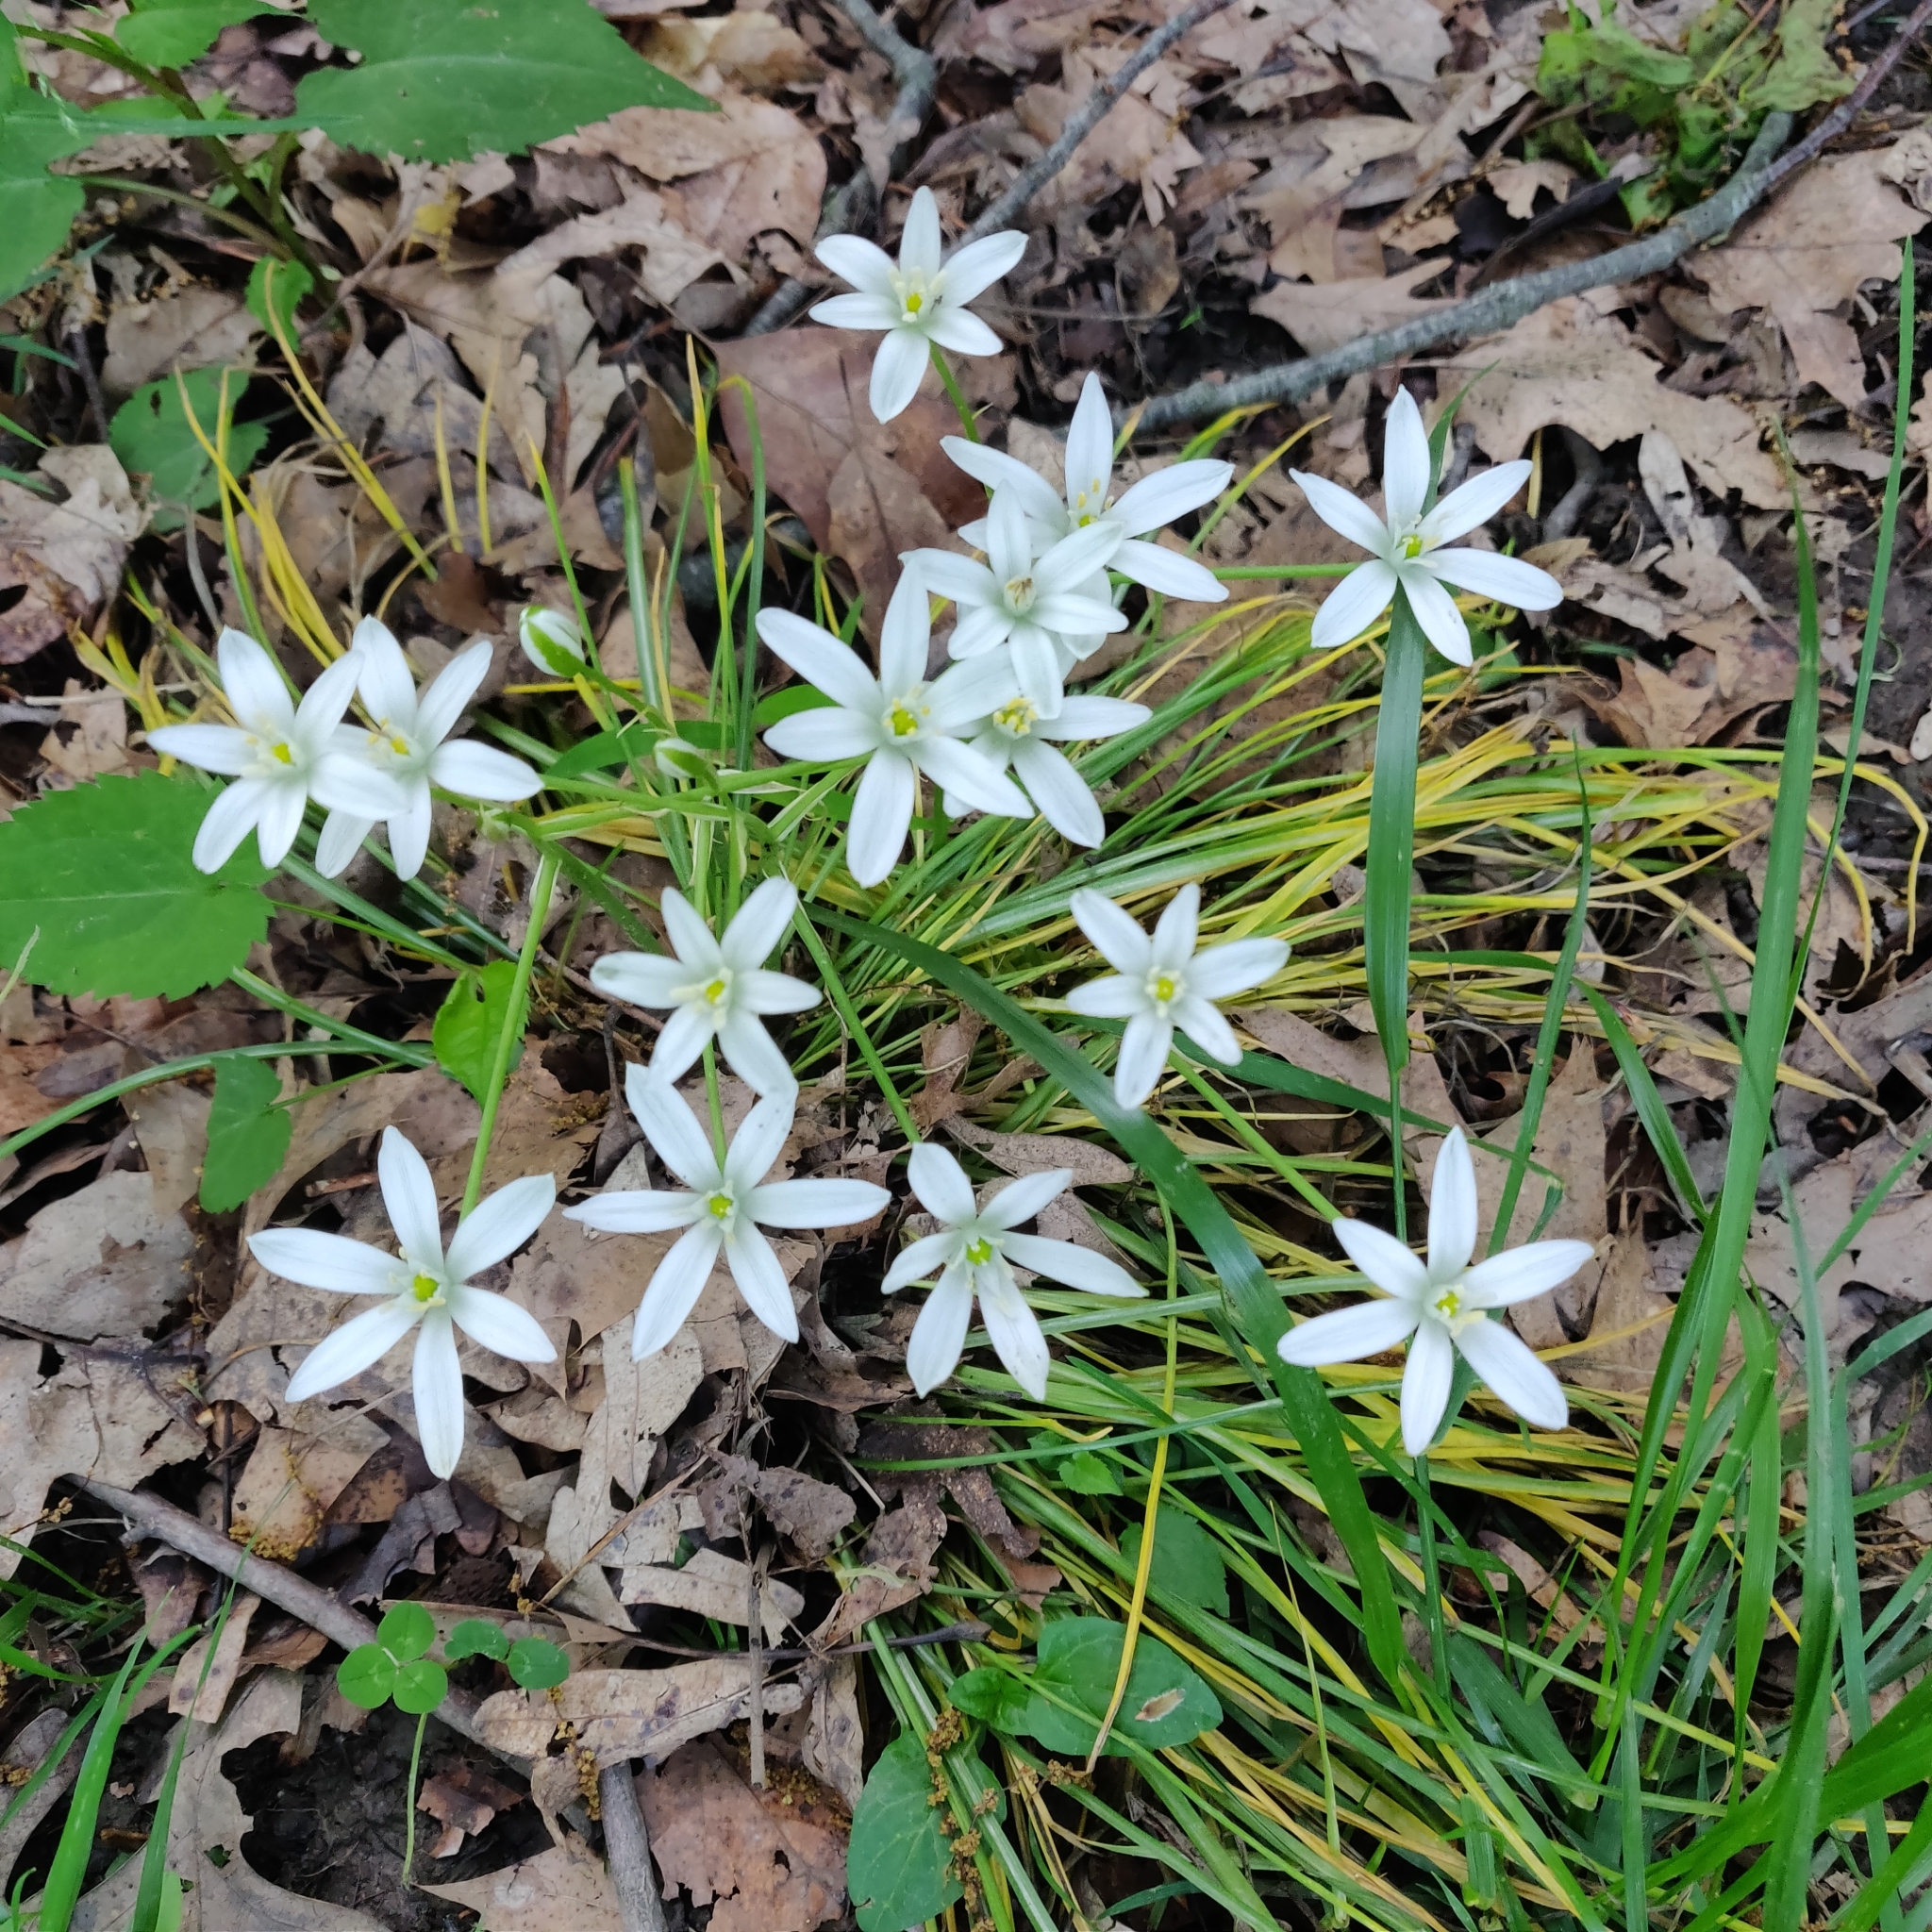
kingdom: Plantae
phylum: Tracheophyta
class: Liliopsida
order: Asparagales
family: Asparagaceae
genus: Ornithogalum
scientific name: Ornithogalum umbellatum
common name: Garden star-of-bethlehem
